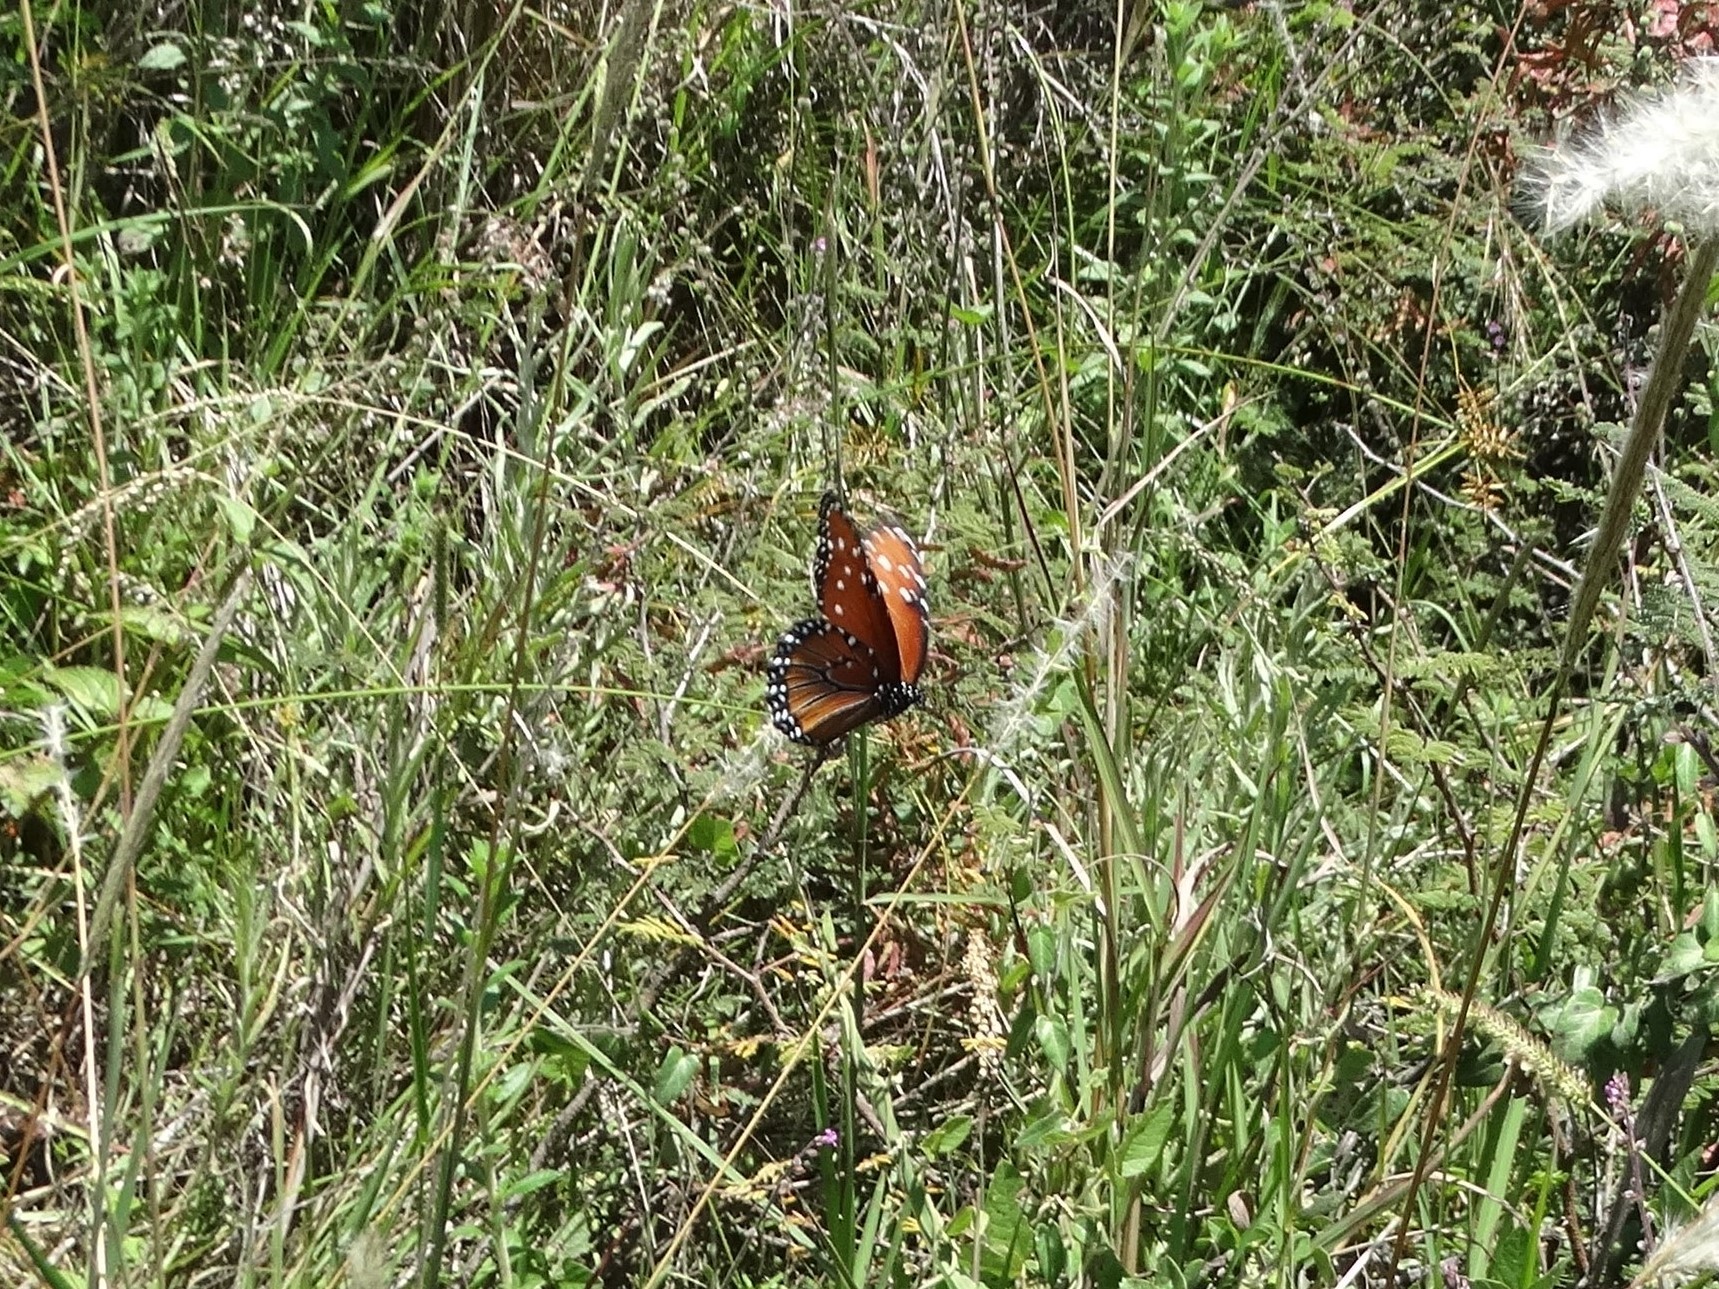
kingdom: Animalia
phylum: Arthropoda
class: Insecta
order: Lepidoptera
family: Nymphalidae
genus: Danaus
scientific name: Danaus gilippus
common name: Queen
